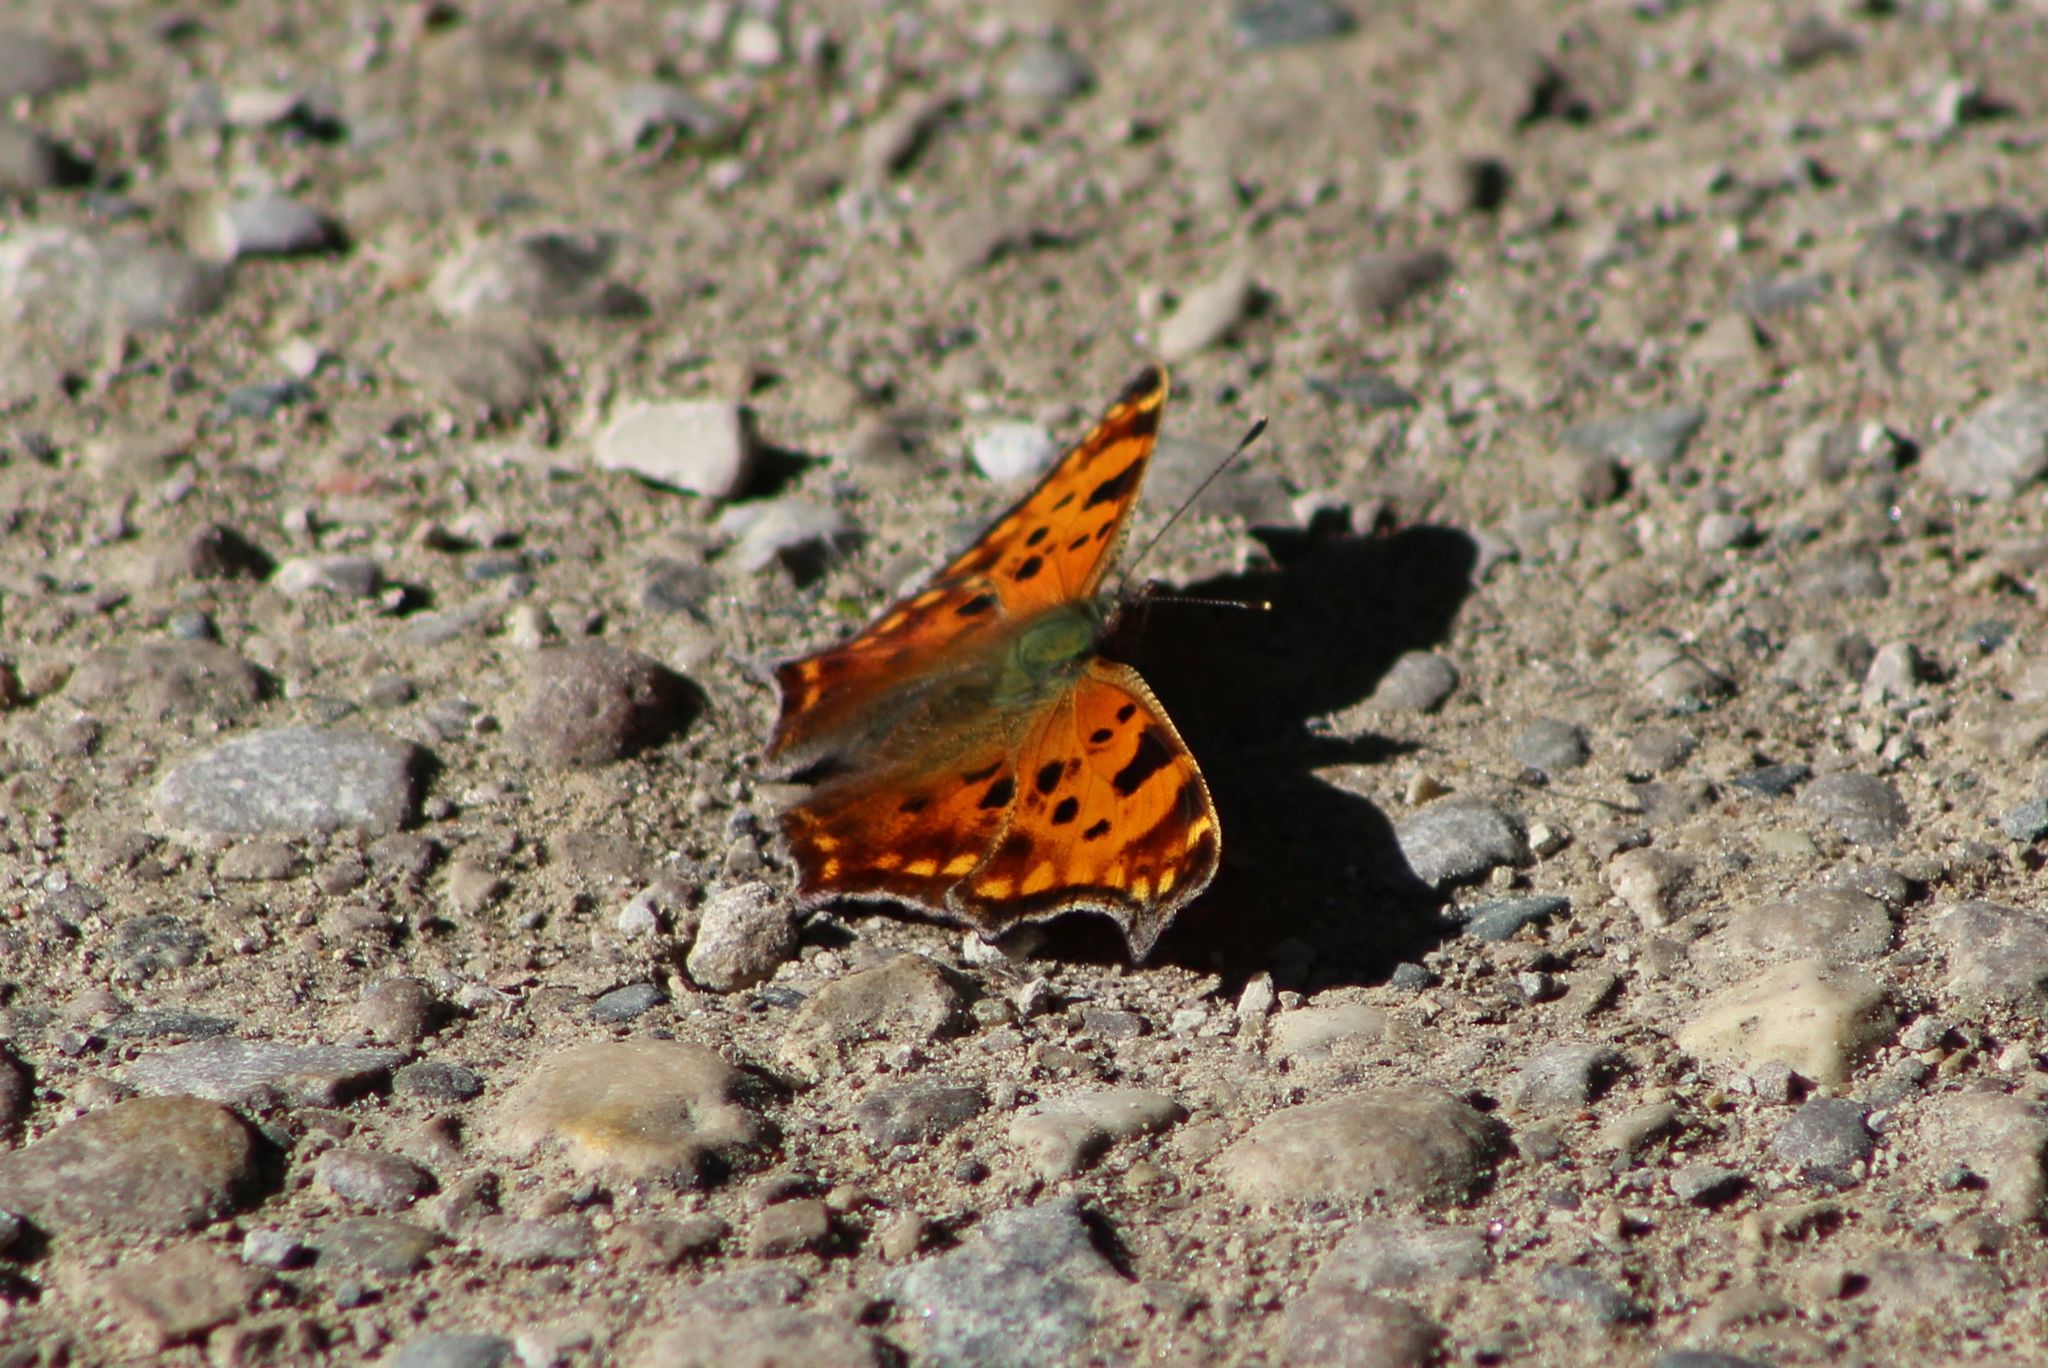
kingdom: Animalia
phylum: Arthropoda
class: Insecta
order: Lepidoptera
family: Nymphalidae
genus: Polygonia
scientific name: Polygonia comma
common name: Eastern comma
